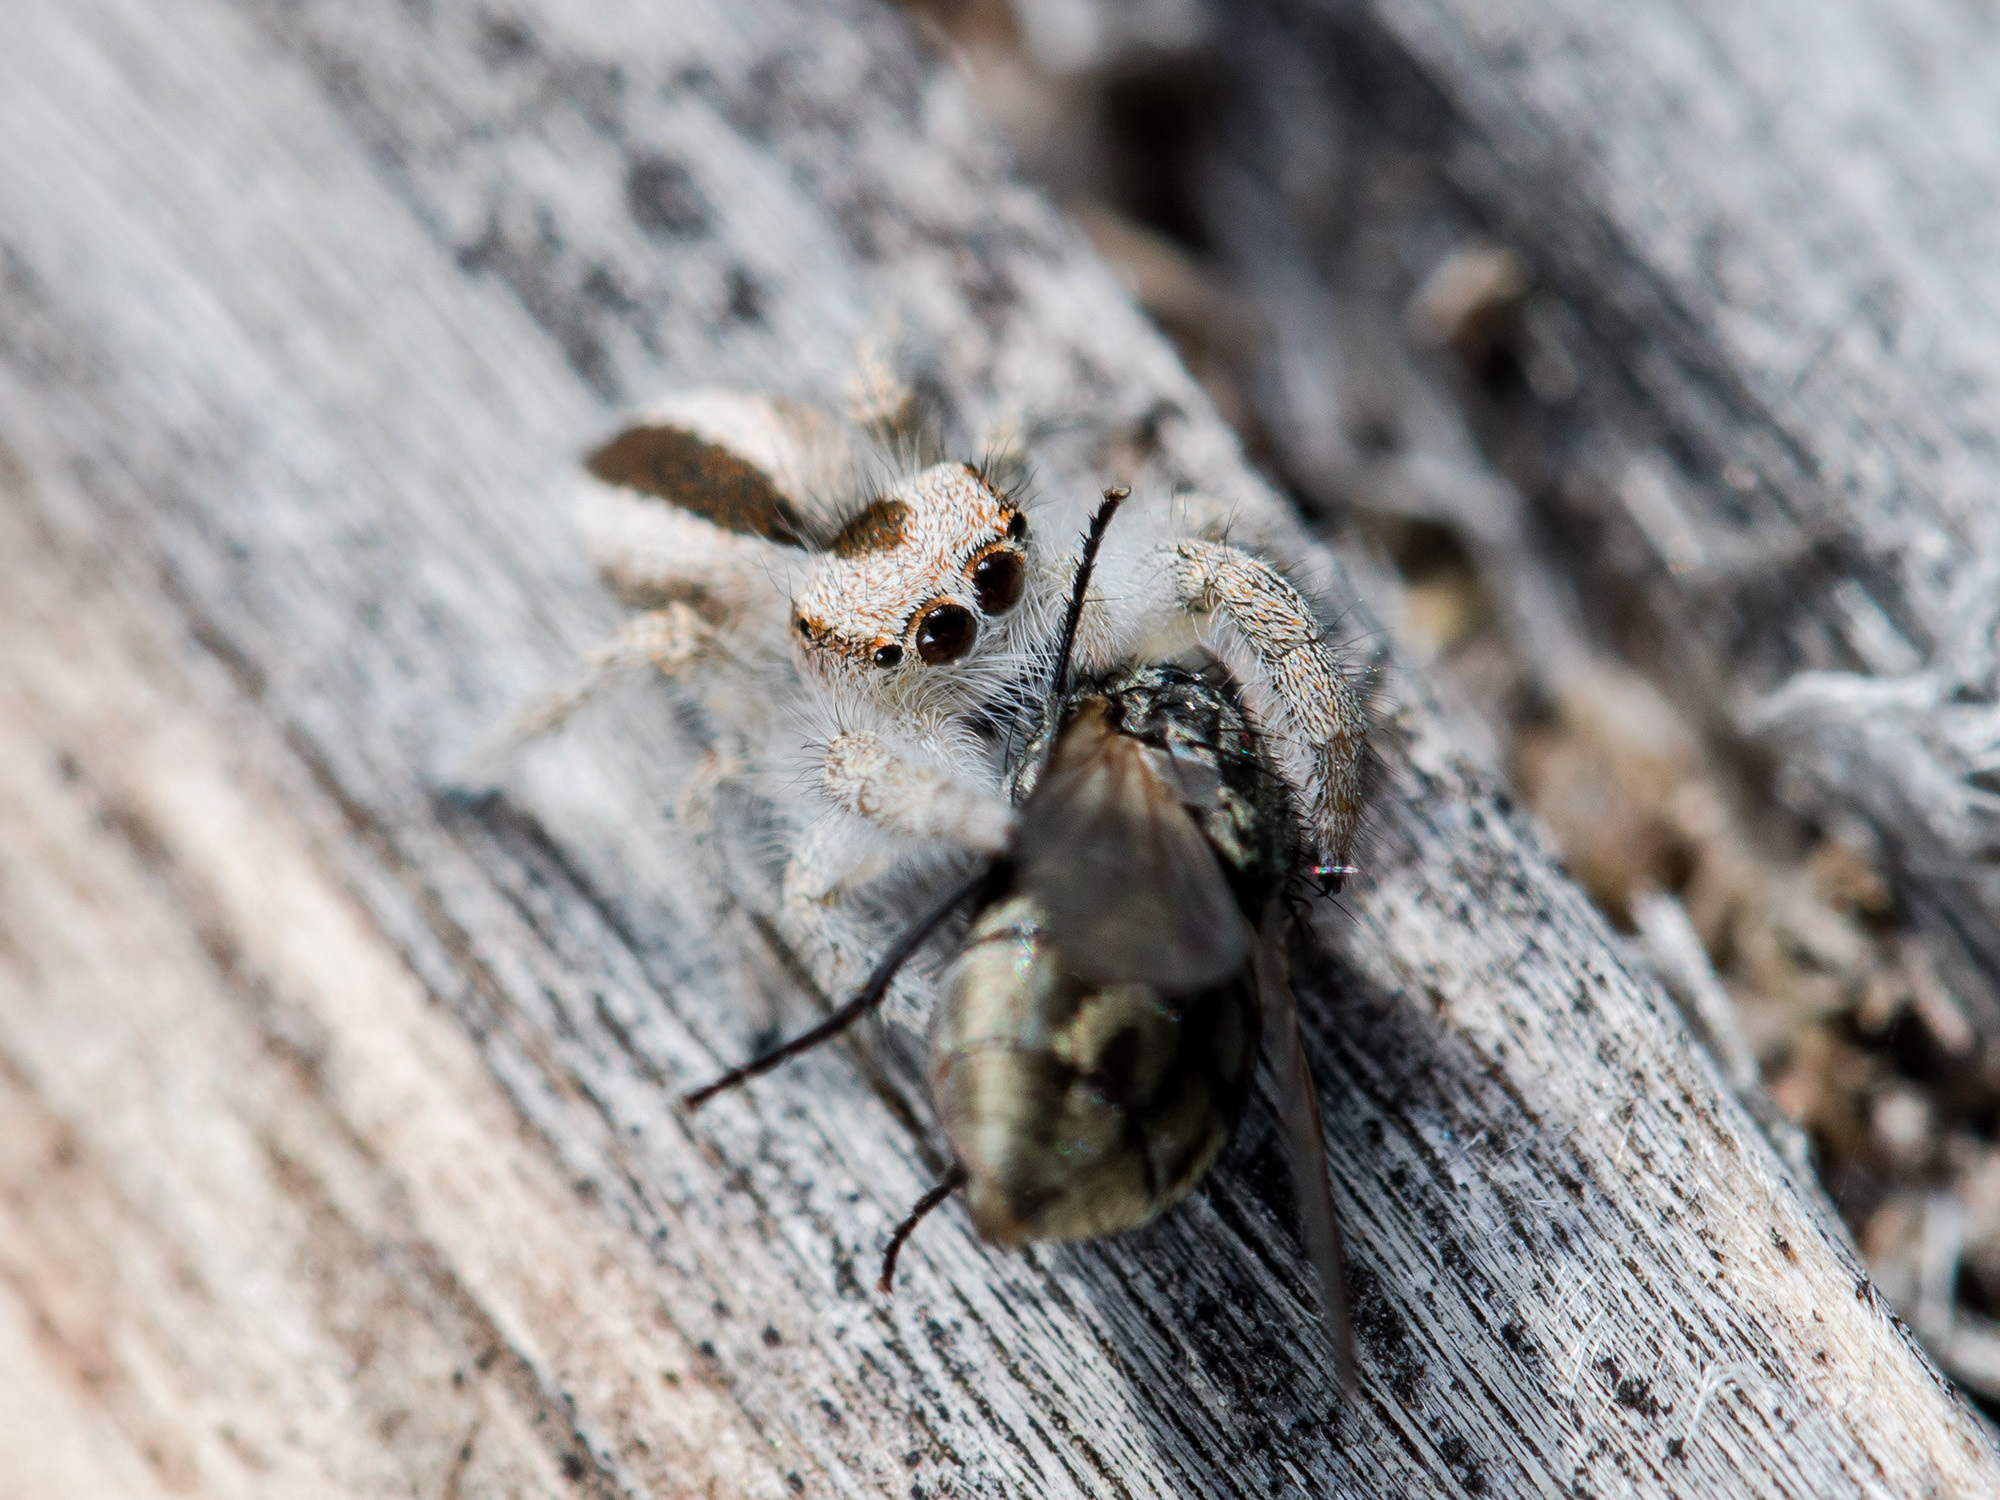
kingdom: Animalia
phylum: Arthropoda
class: Arachnida
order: Araneae
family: Salticidae
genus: Pseudomogrus
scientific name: Pseudomogrus validus
